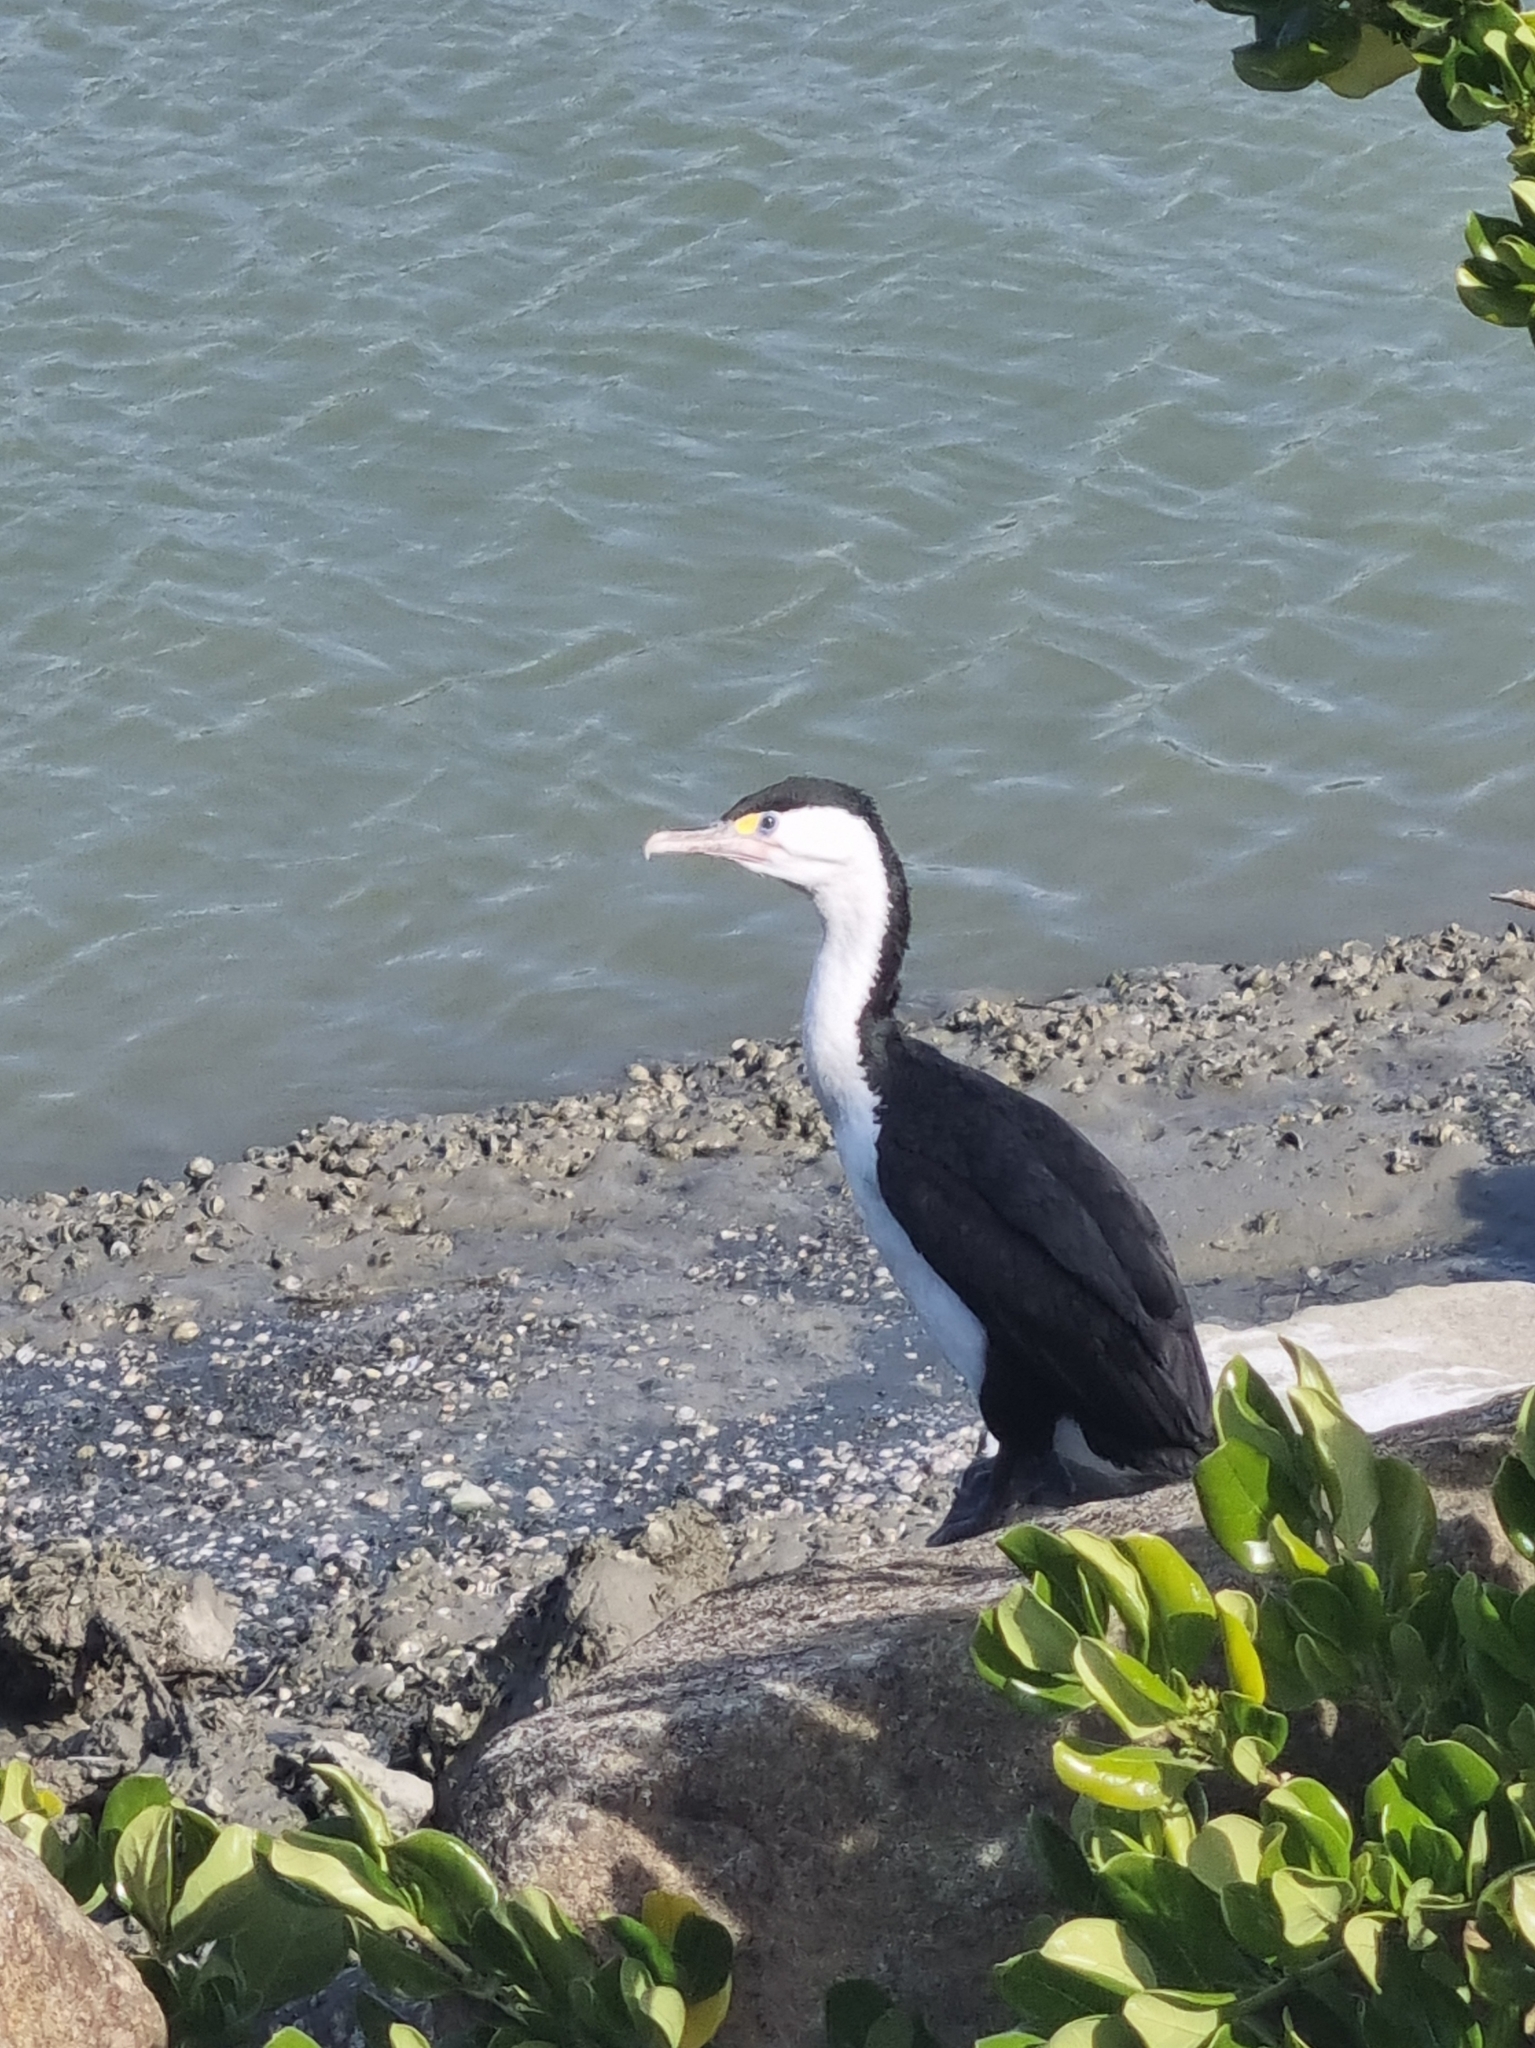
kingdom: Animalia
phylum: Chordata
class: Aves
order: Suliformes
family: Phalacrocoracidae
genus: Phalacrocorax
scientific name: Phalacrocorax varius
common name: Pied cormorant
